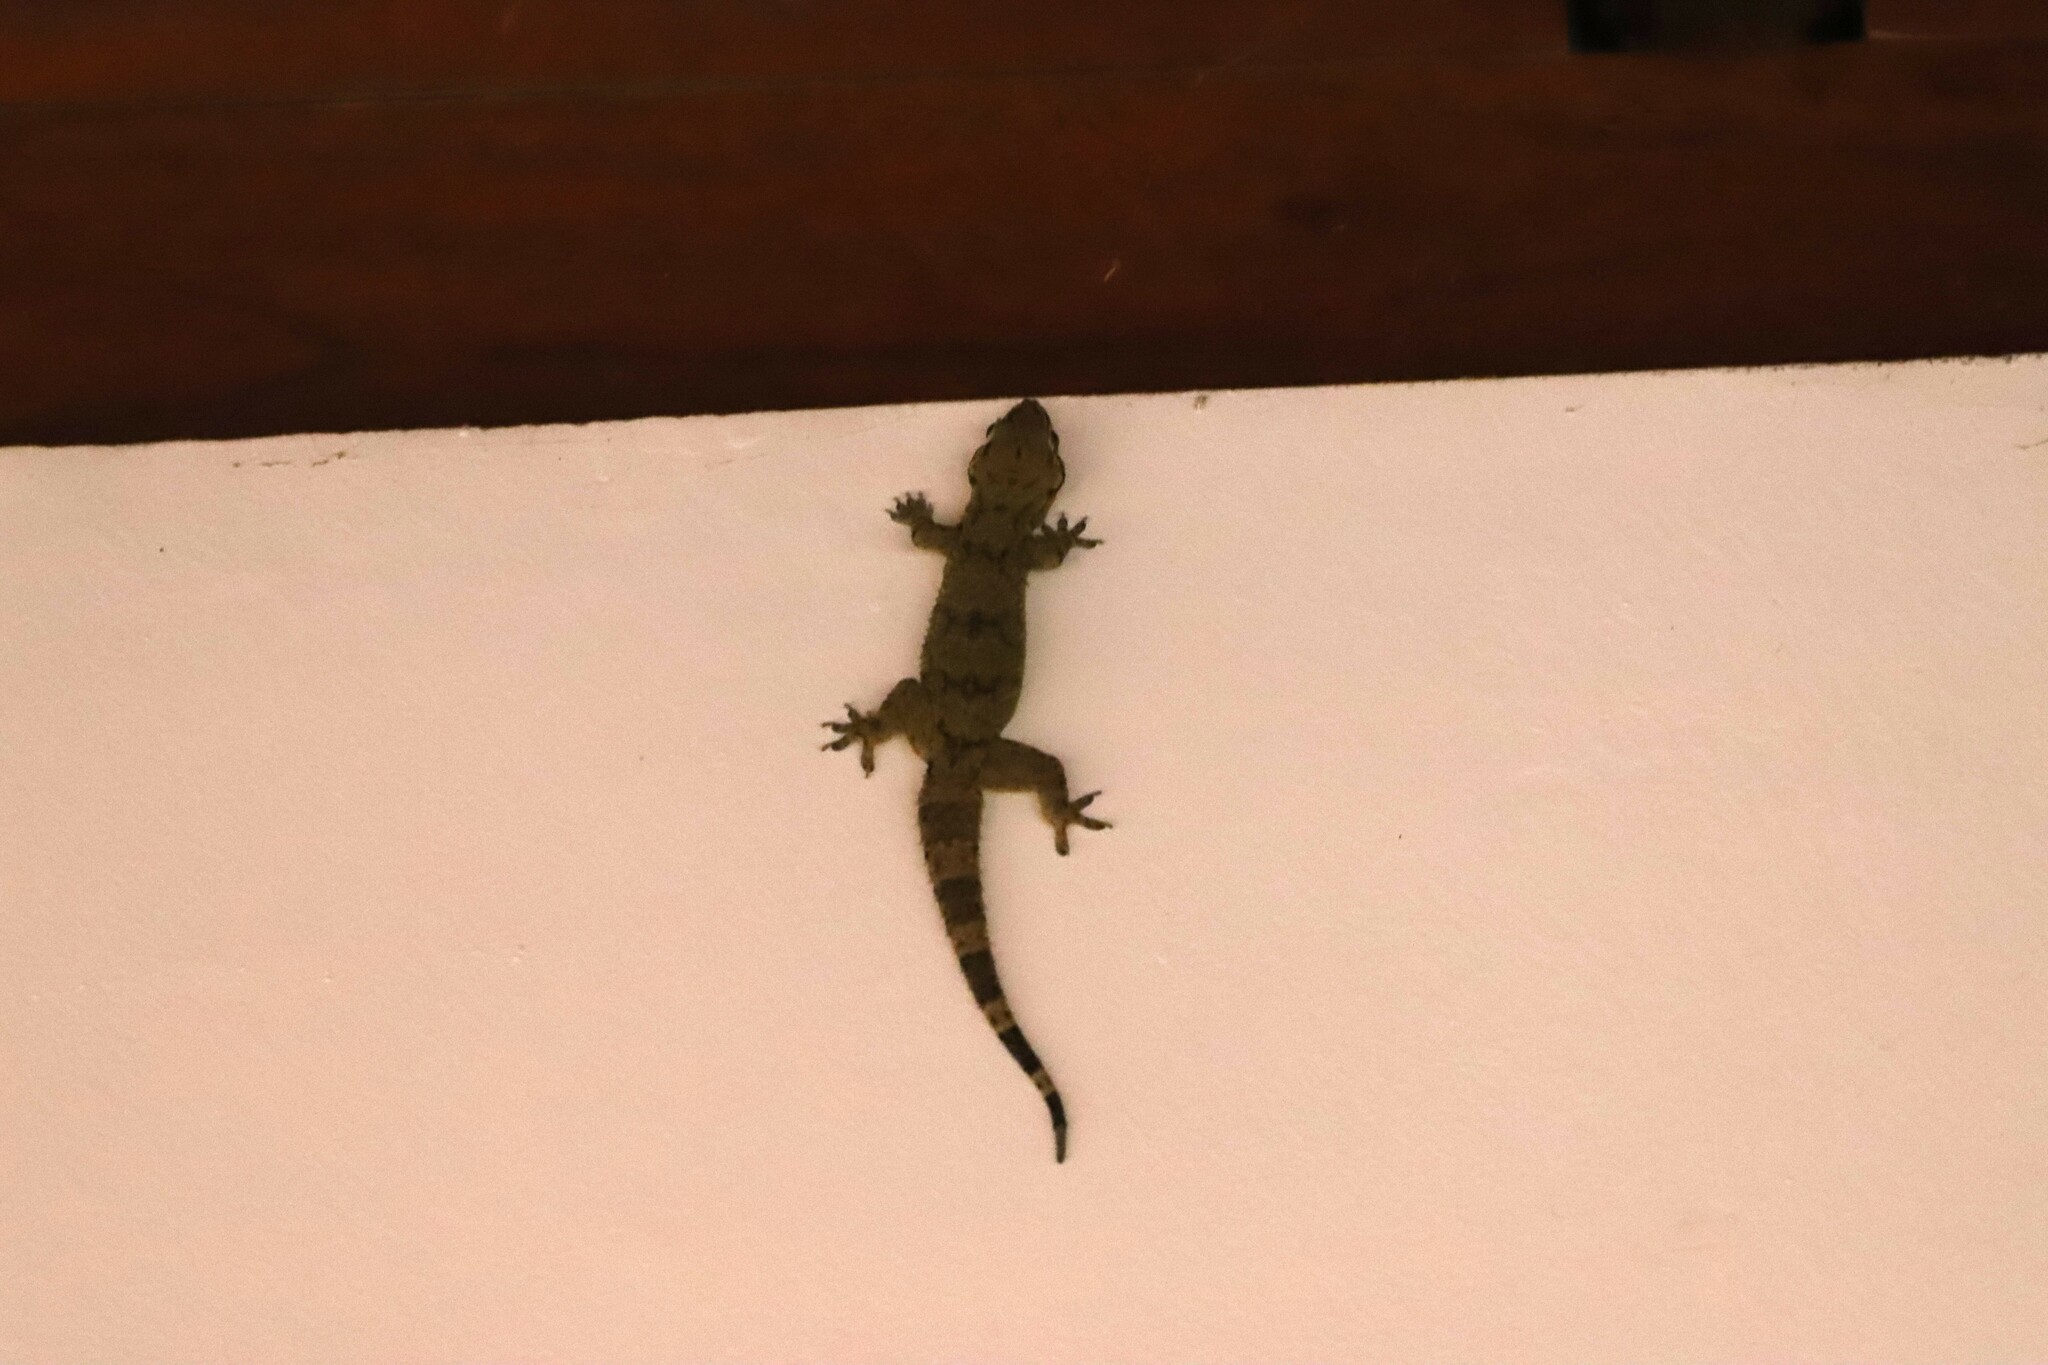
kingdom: Animalia
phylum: Chordata
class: Squamata
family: Gekkonidae
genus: Hemidactylus
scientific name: Hemidactylus depressus
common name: Srilanka leaf-toed gecko
